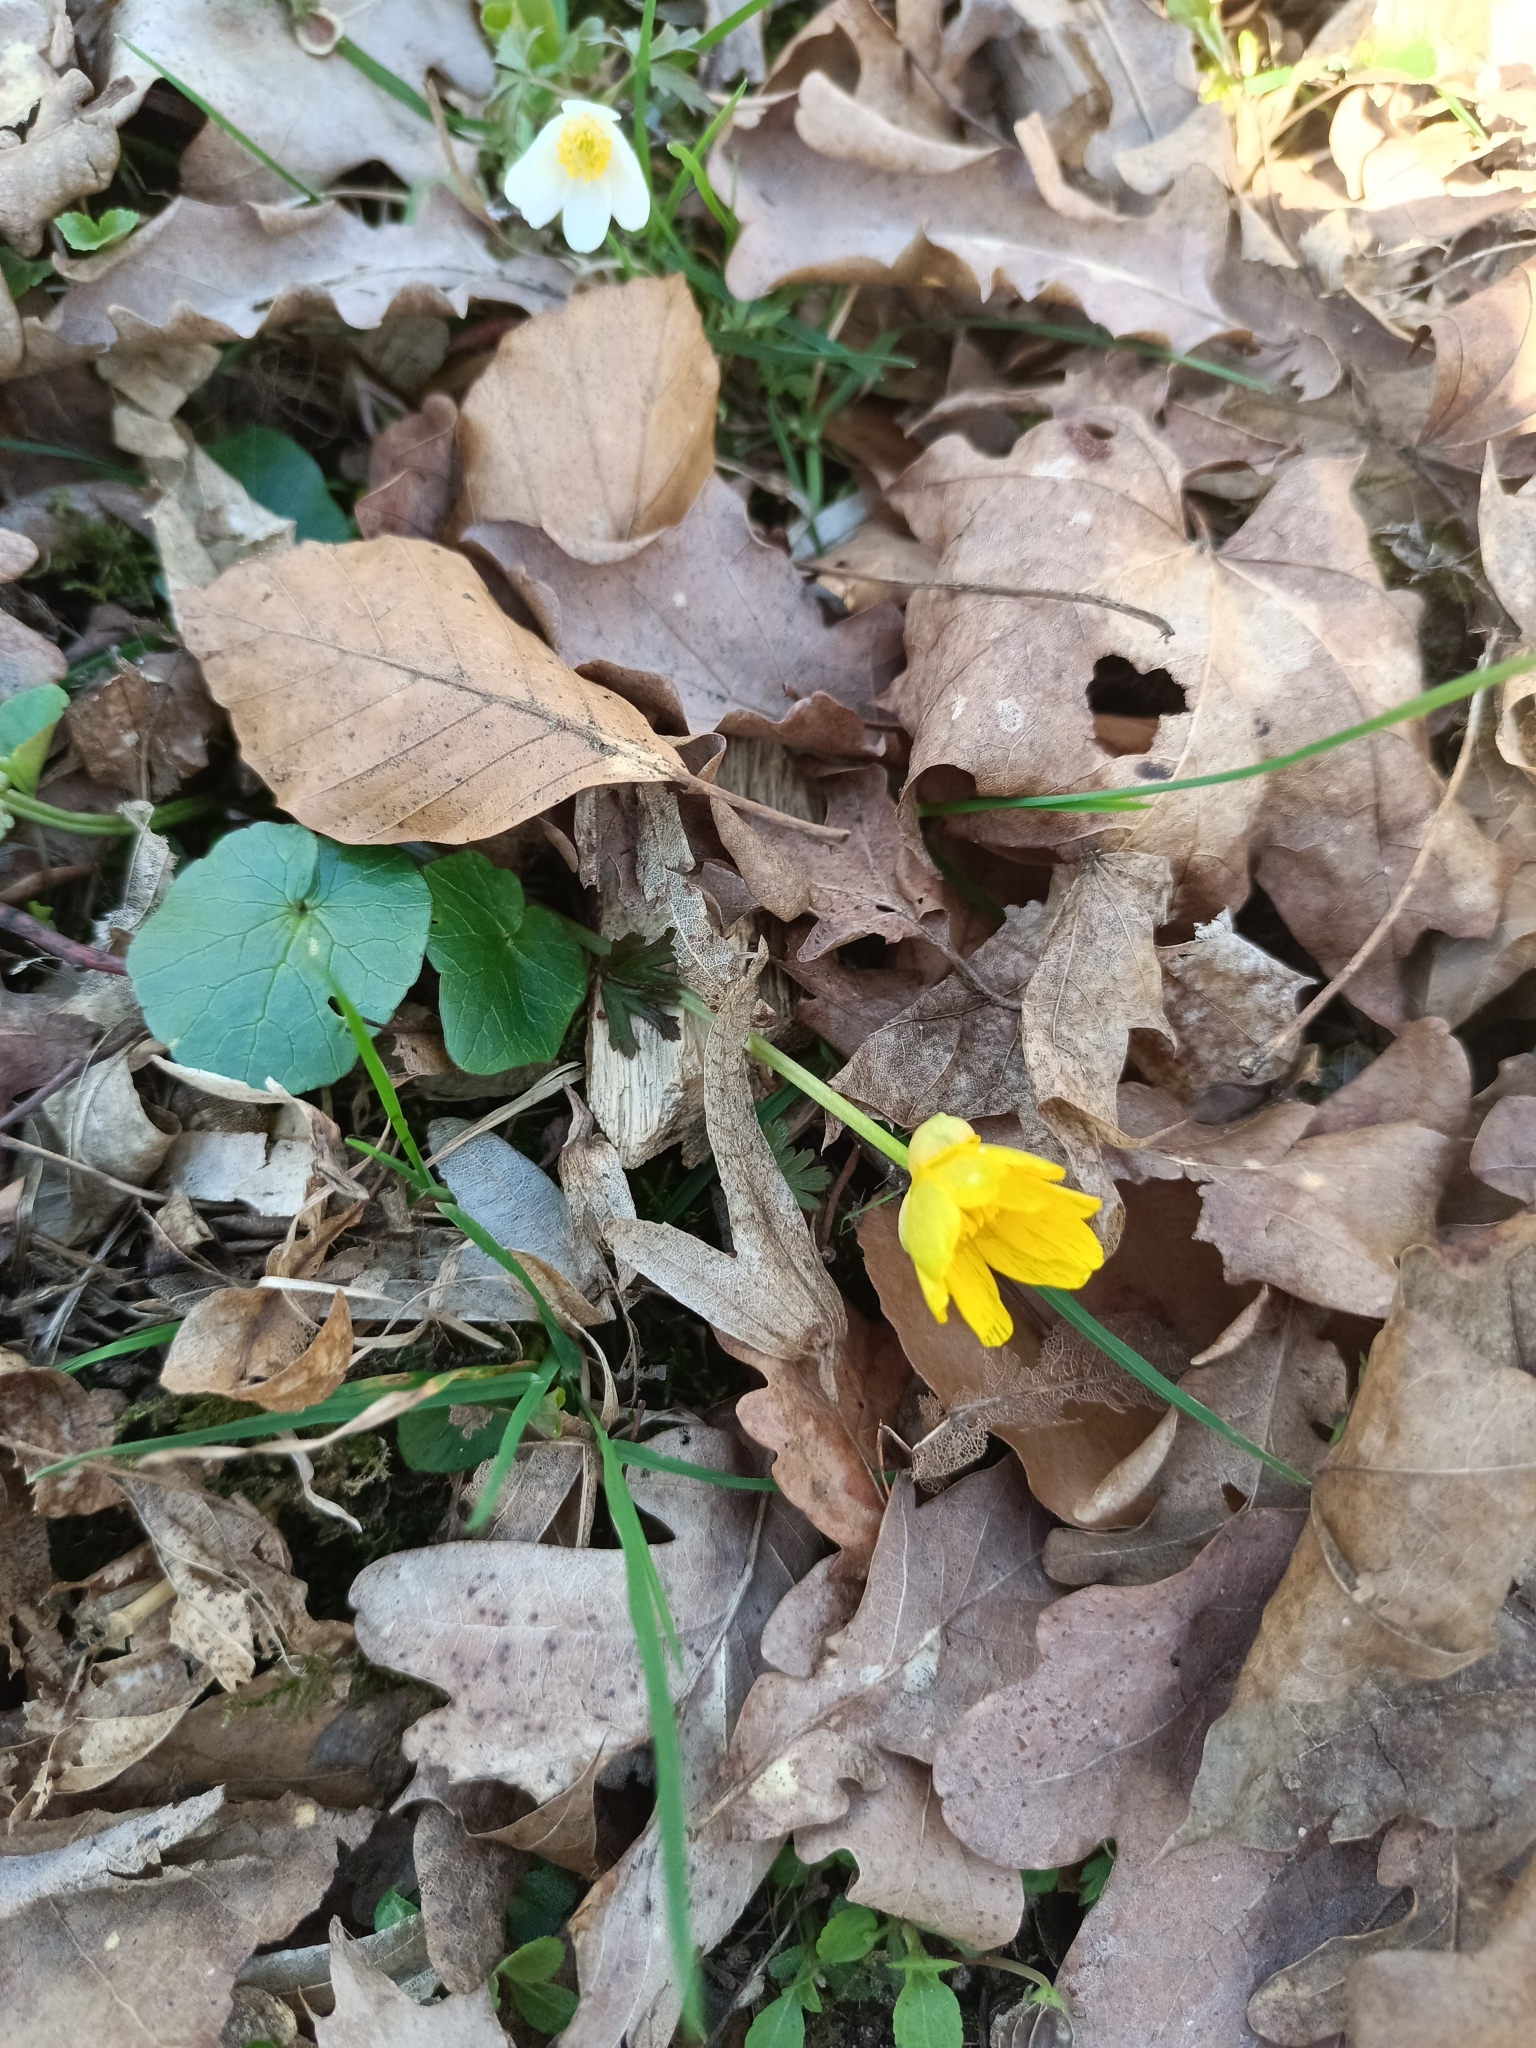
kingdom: Plantae
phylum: Tracheophyta
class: Magnoliopsida
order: Ranunculales
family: Ranunculaceae
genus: Ficaria
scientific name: Ficaria verna
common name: Lesser celandine
